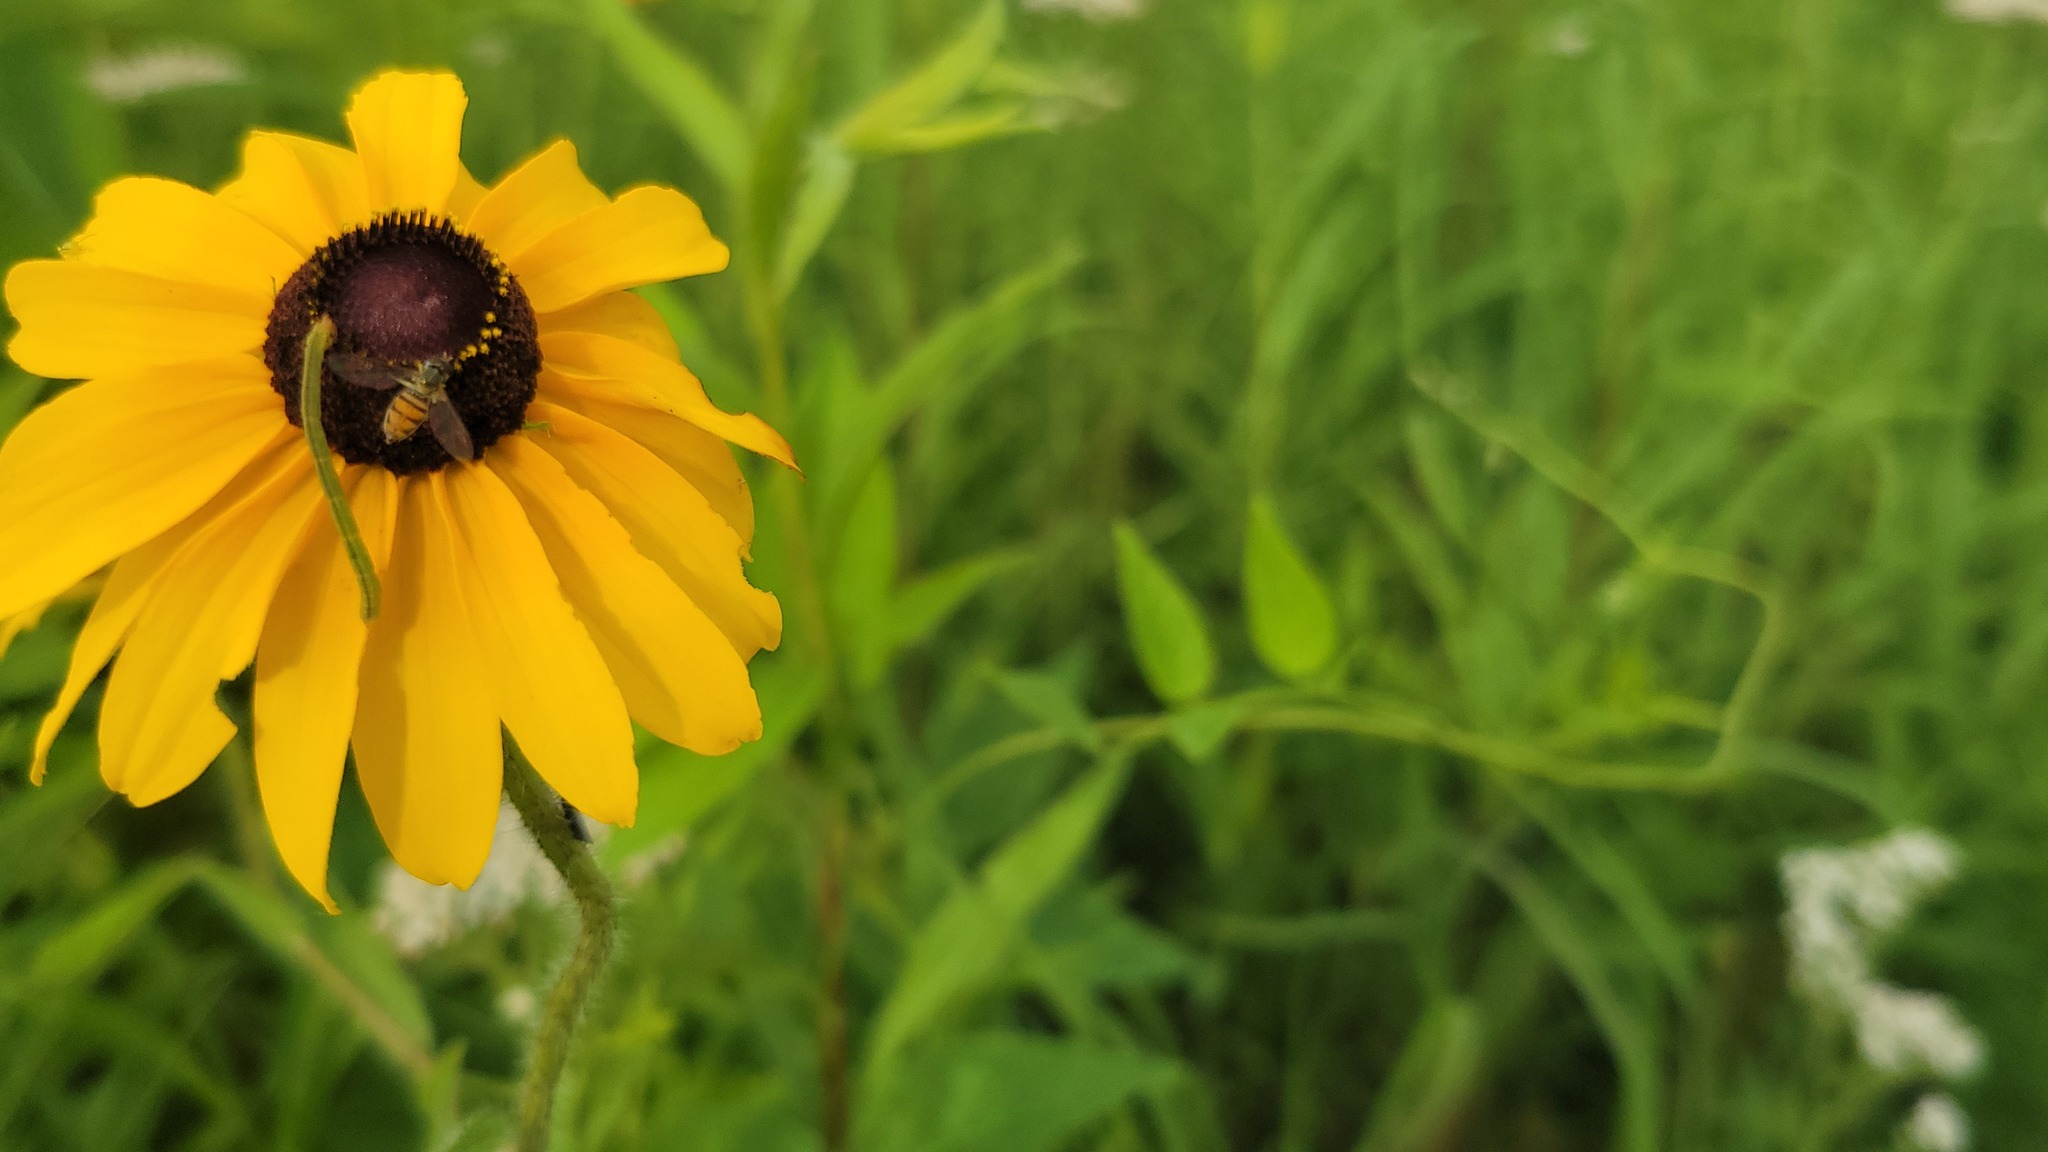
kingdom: Animalia
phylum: Arthropoda
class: Insecta
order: Diptera
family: Syrphidae
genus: Toxomerus
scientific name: Toxomerus marginatus
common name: Syrphid fly
